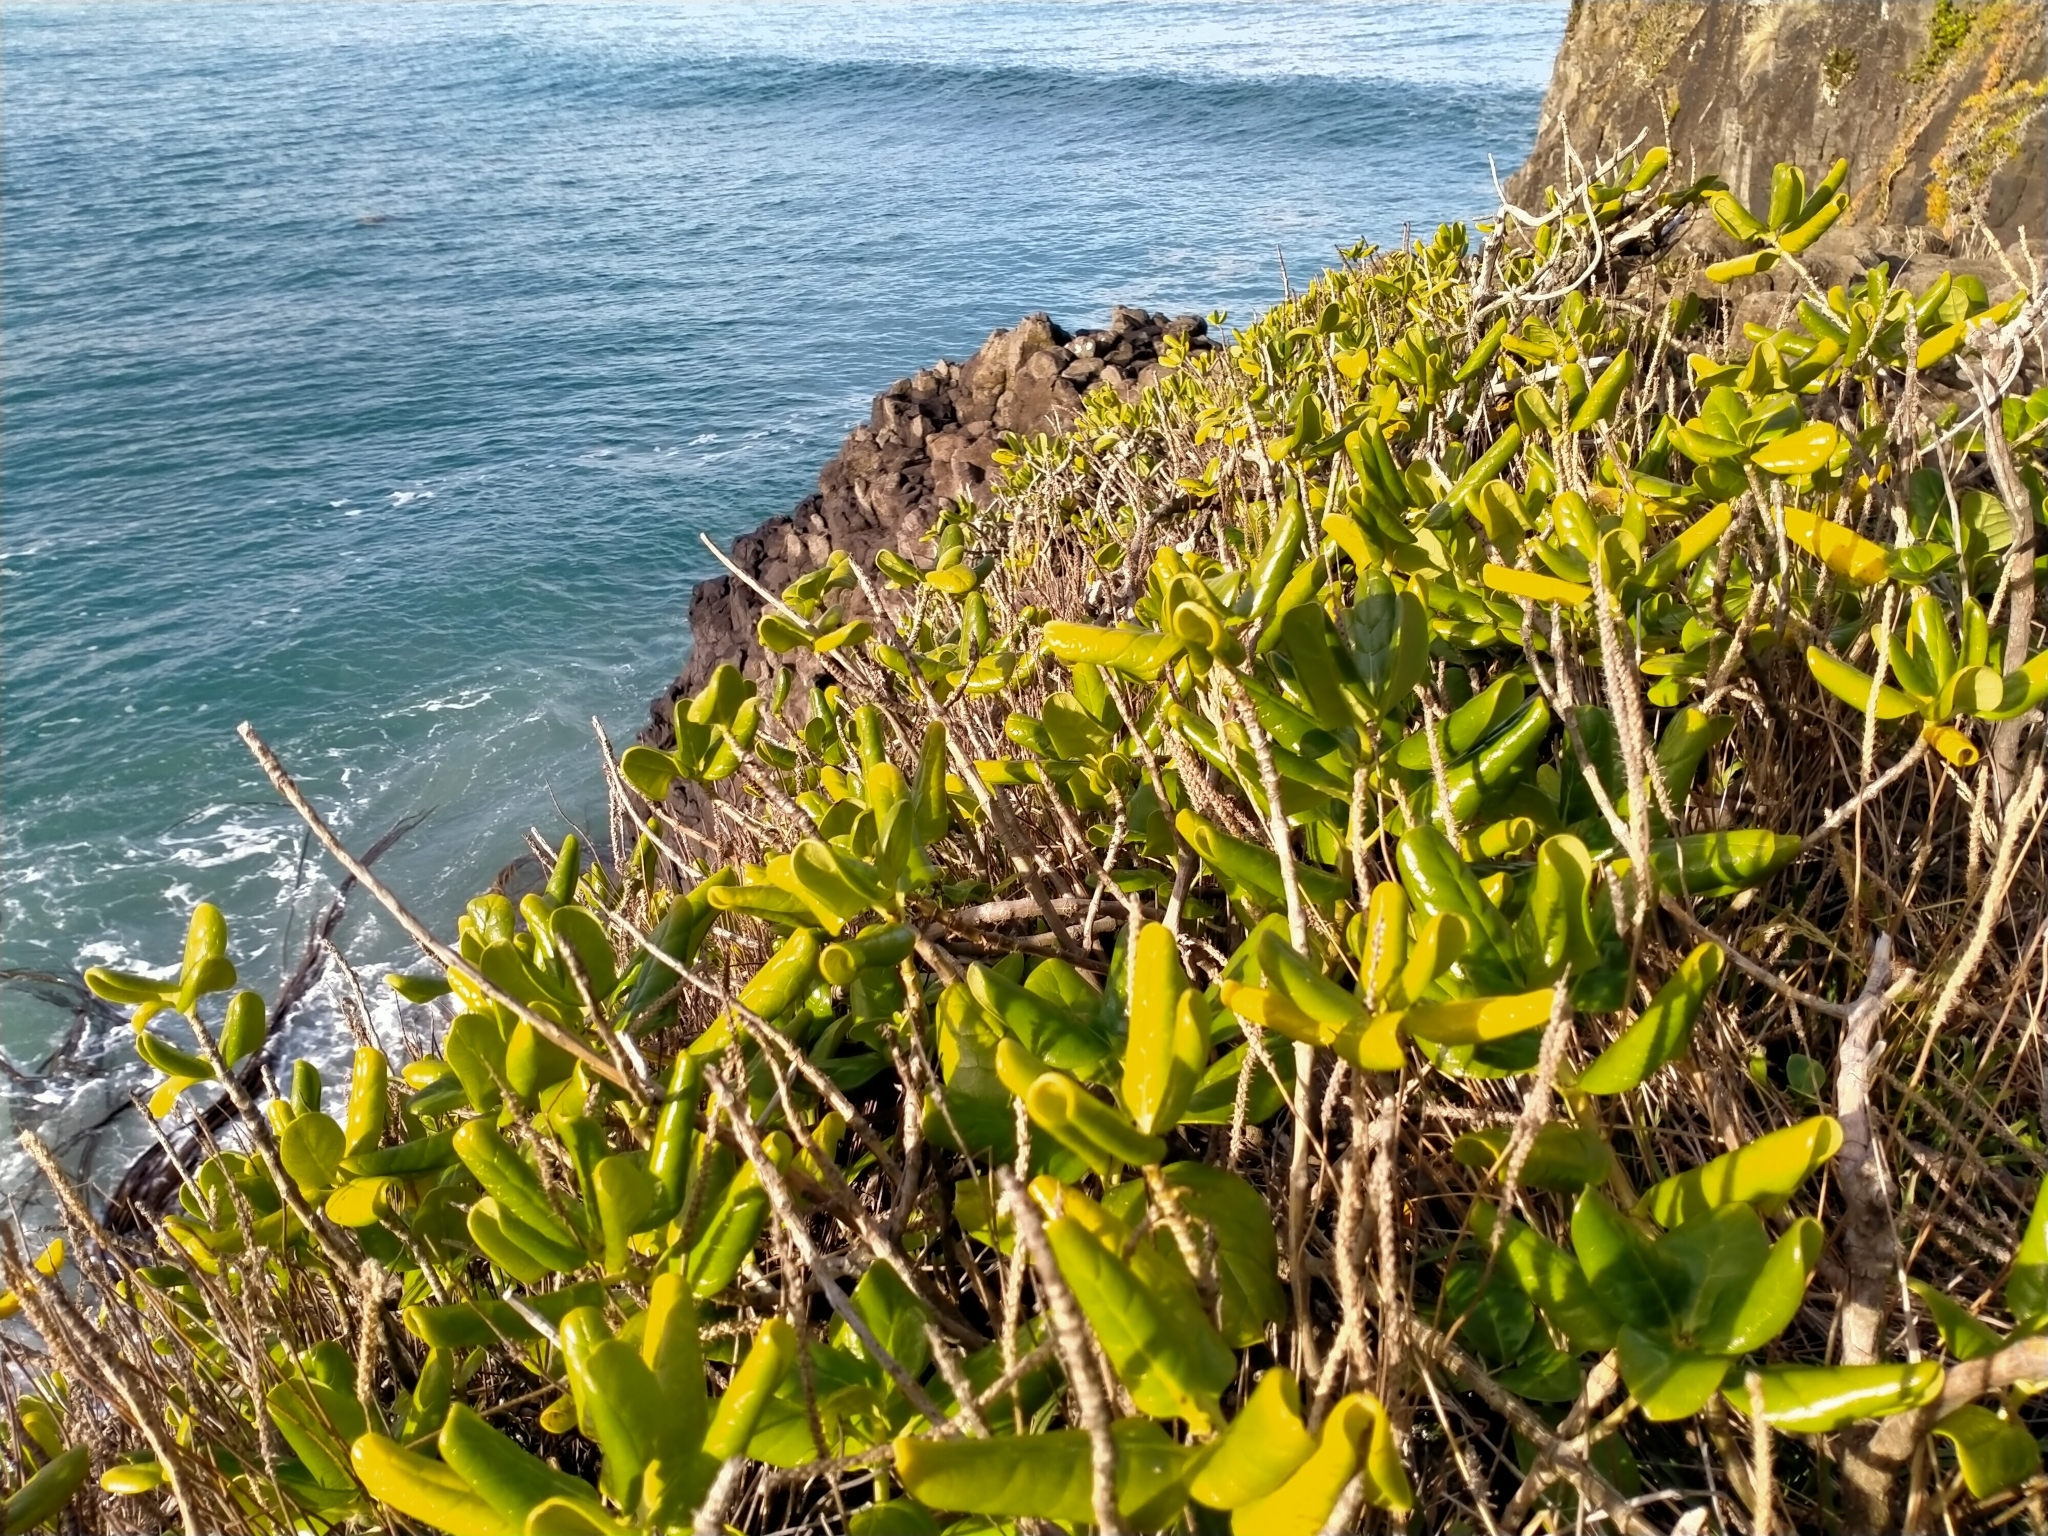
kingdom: Plantae
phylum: Tracheophyta
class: Magnoliopsida
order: Gentianales
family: Rubiaceae
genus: Coprosma
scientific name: Coprosma repens
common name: Tree bedstraw
